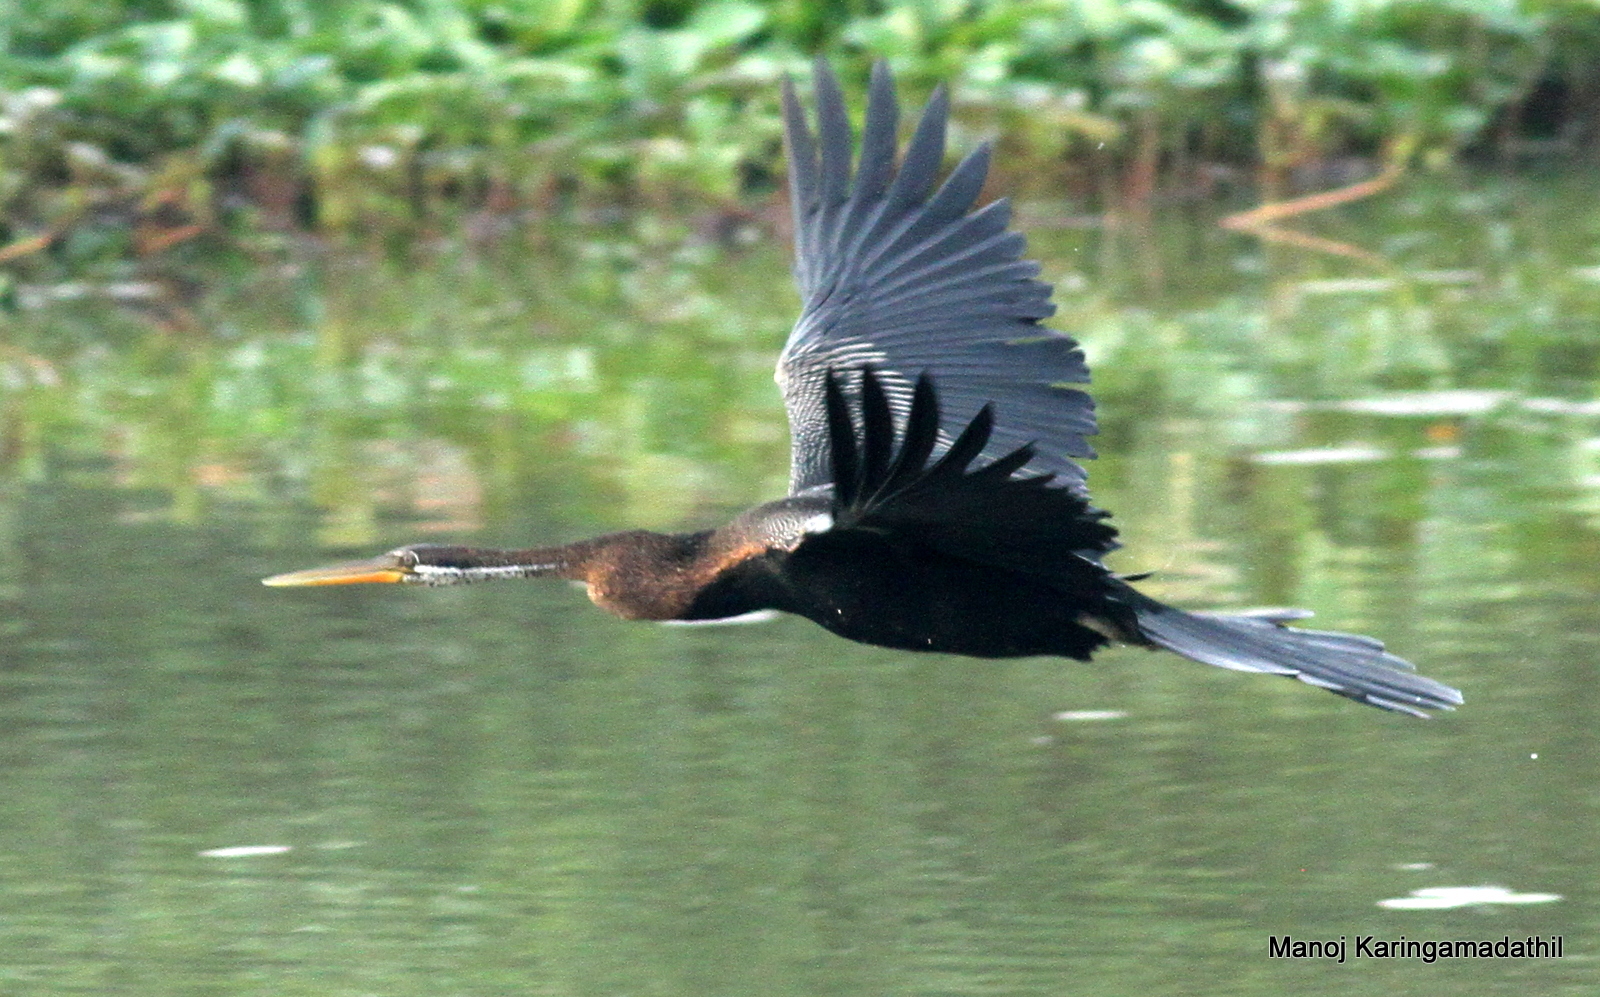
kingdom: Animalia
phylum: Chordata
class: Aves
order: Suliformes
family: Anhingidae
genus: Anhinga
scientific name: Anhinga melanogaster
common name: Oriental darter
